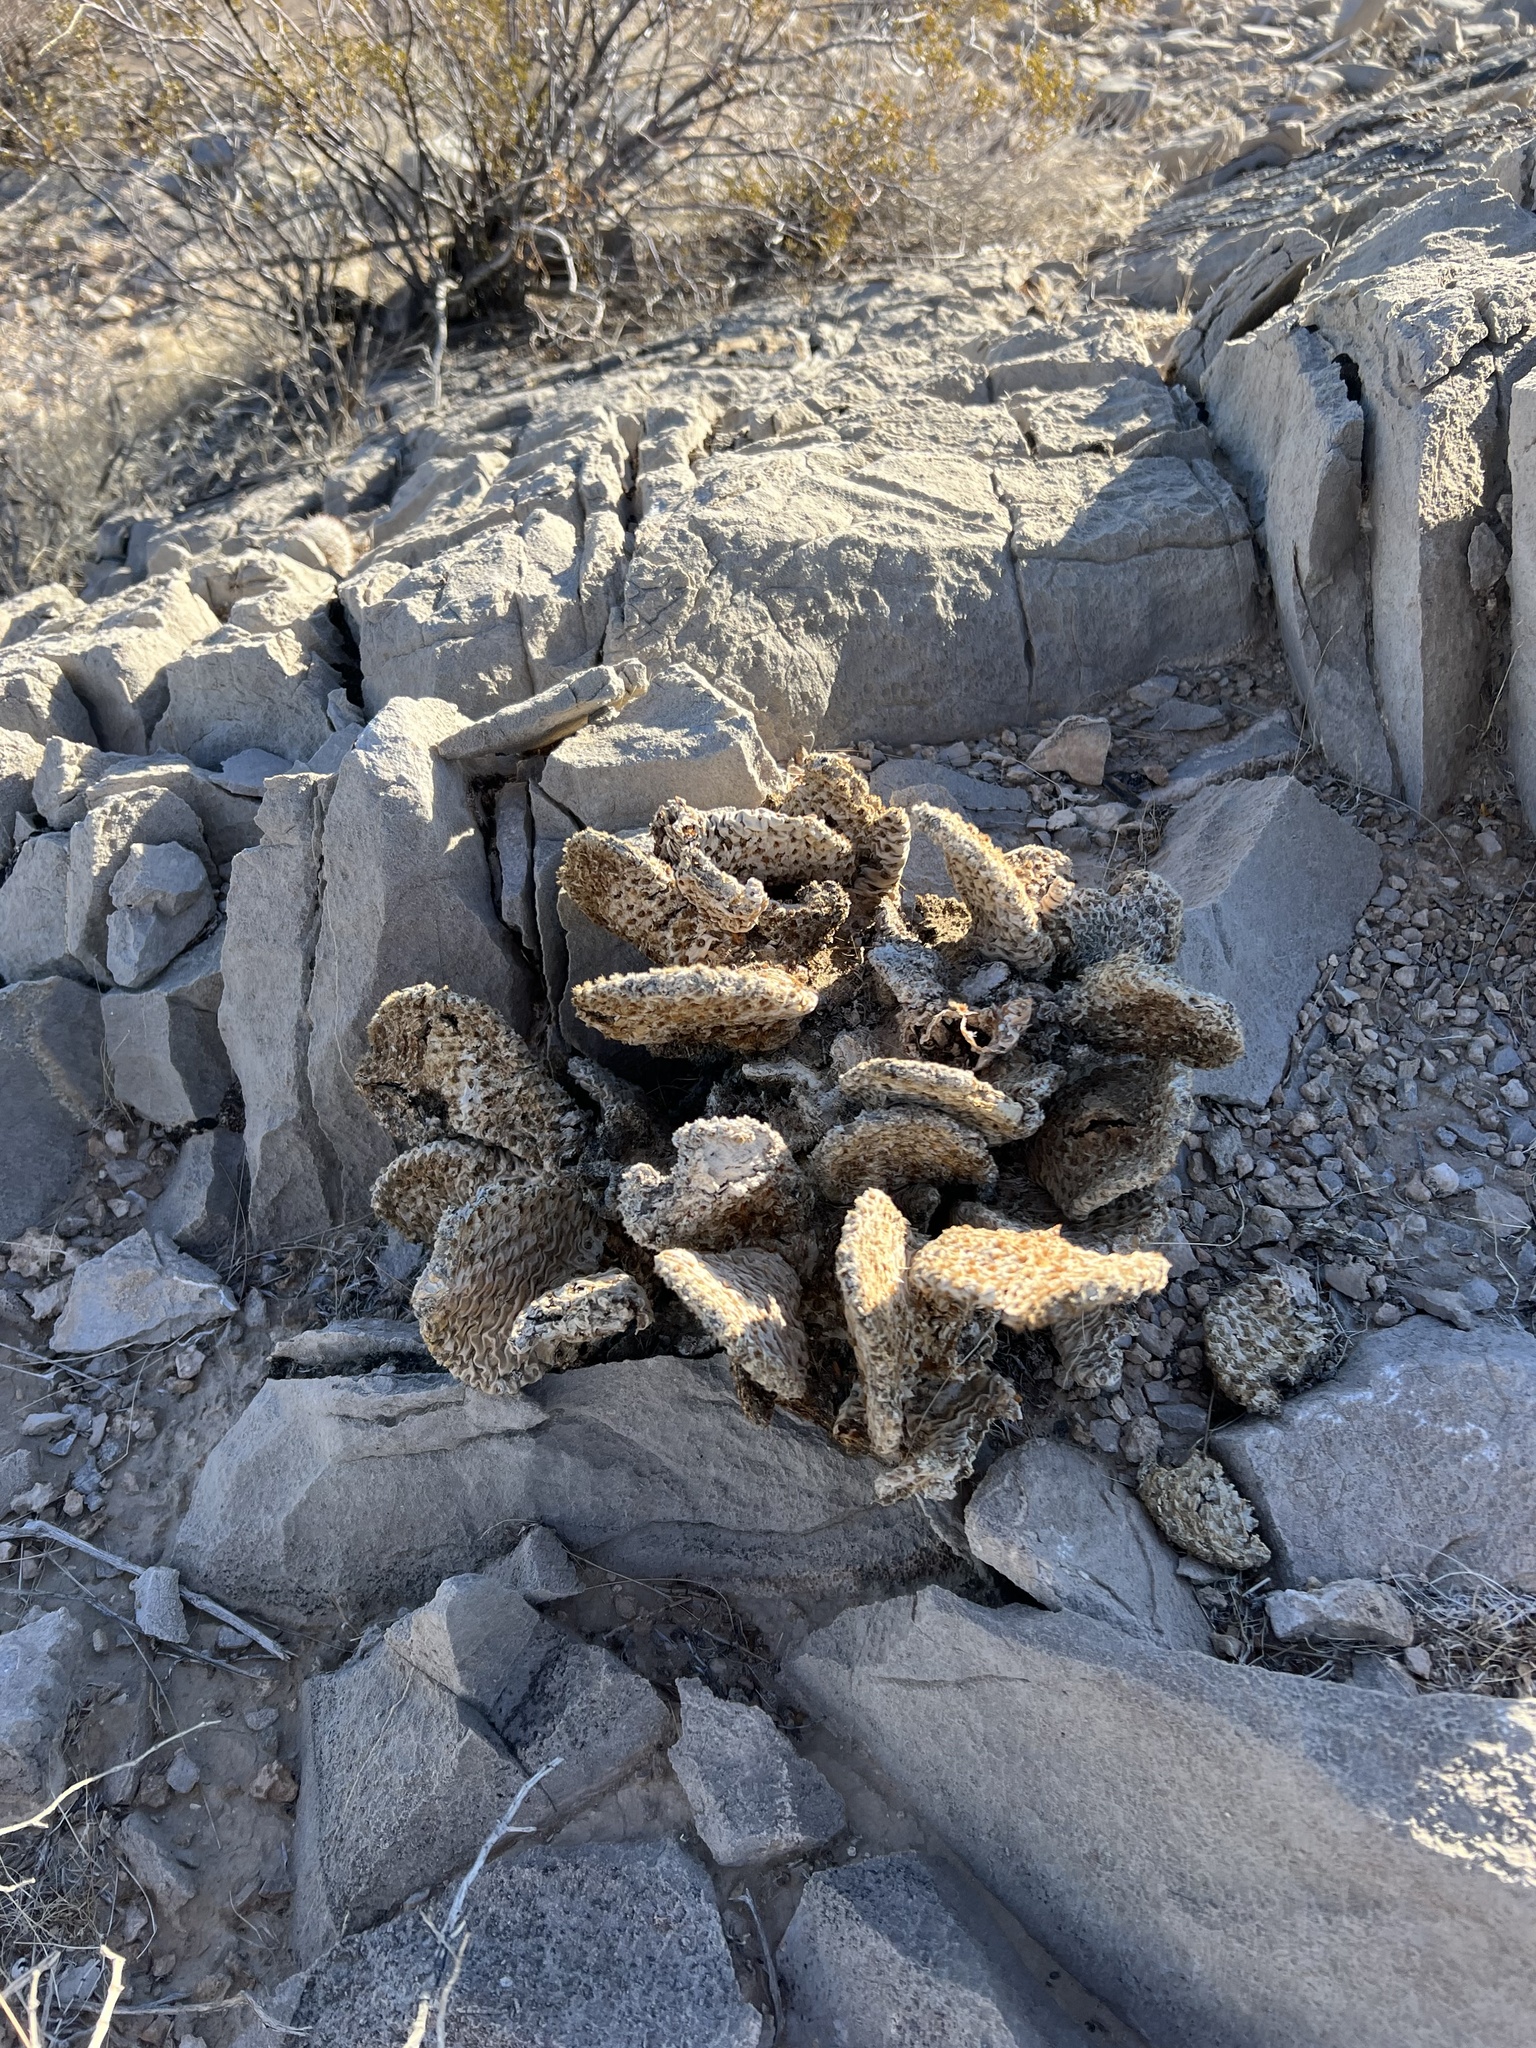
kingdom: Plantae
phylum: Tracheophyta
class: Magnoliopsida
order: Caryophyllales
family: Cactaceae
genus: Opuntia
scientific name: Opuntia basilaris
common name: Beavertail prickly-pear
